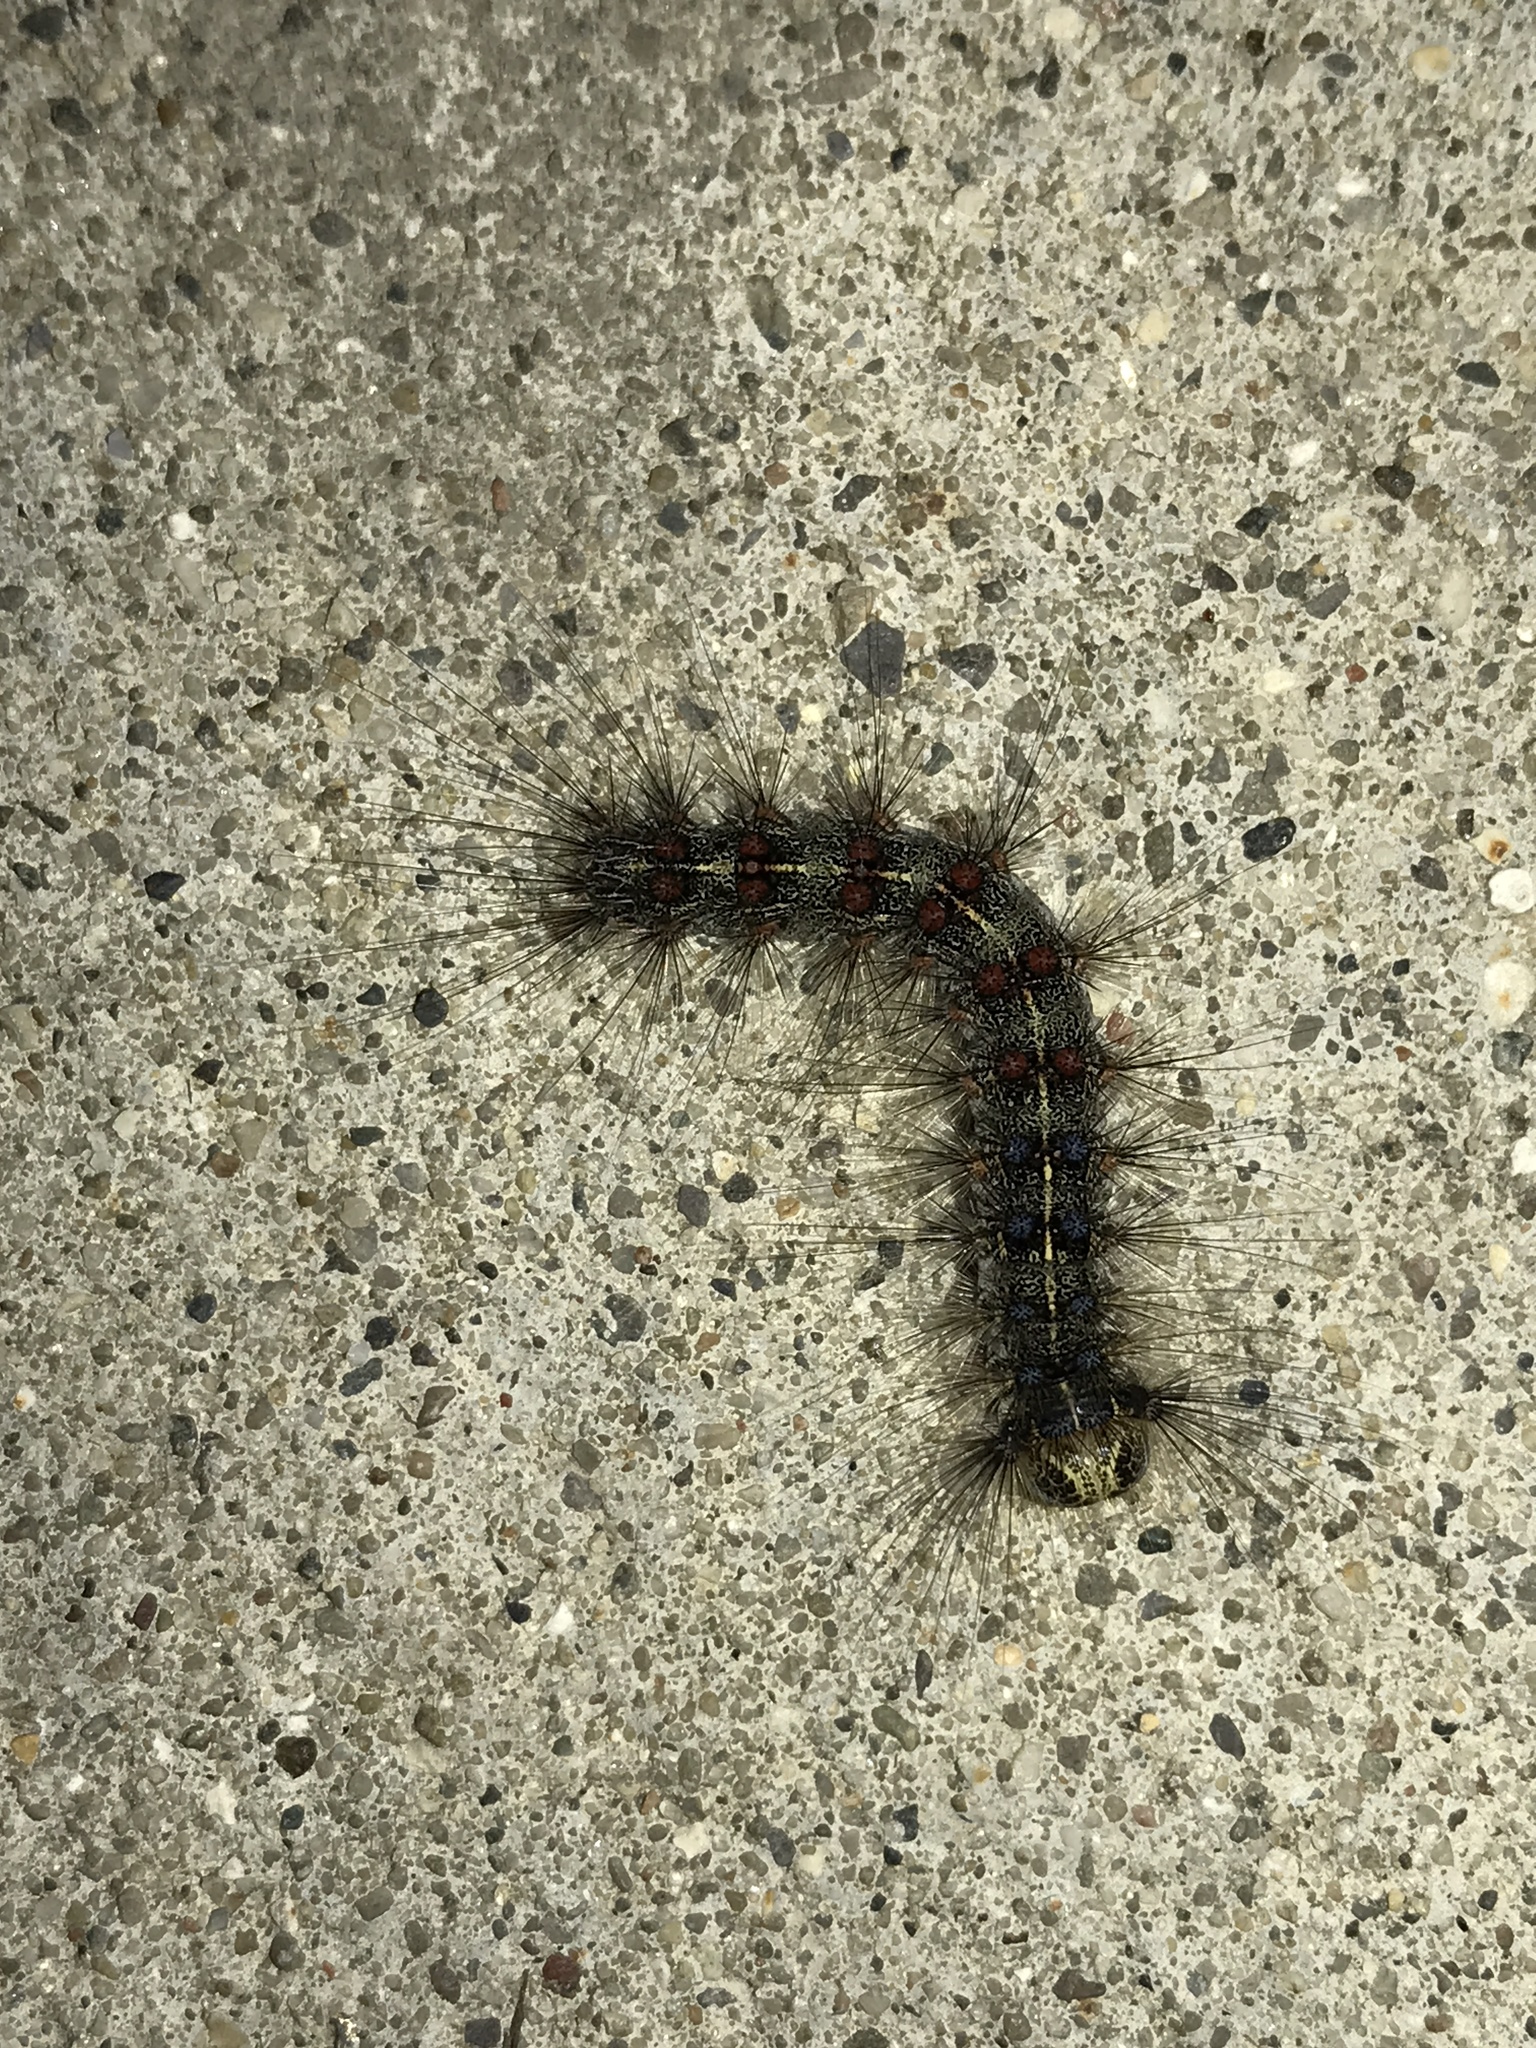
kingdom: Animalia
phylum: Arthropoda
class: Insecta
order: Lepidoptera
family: Erebidae
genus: Lymantria
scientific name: Lymantria dispar
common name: Gypsy moth
